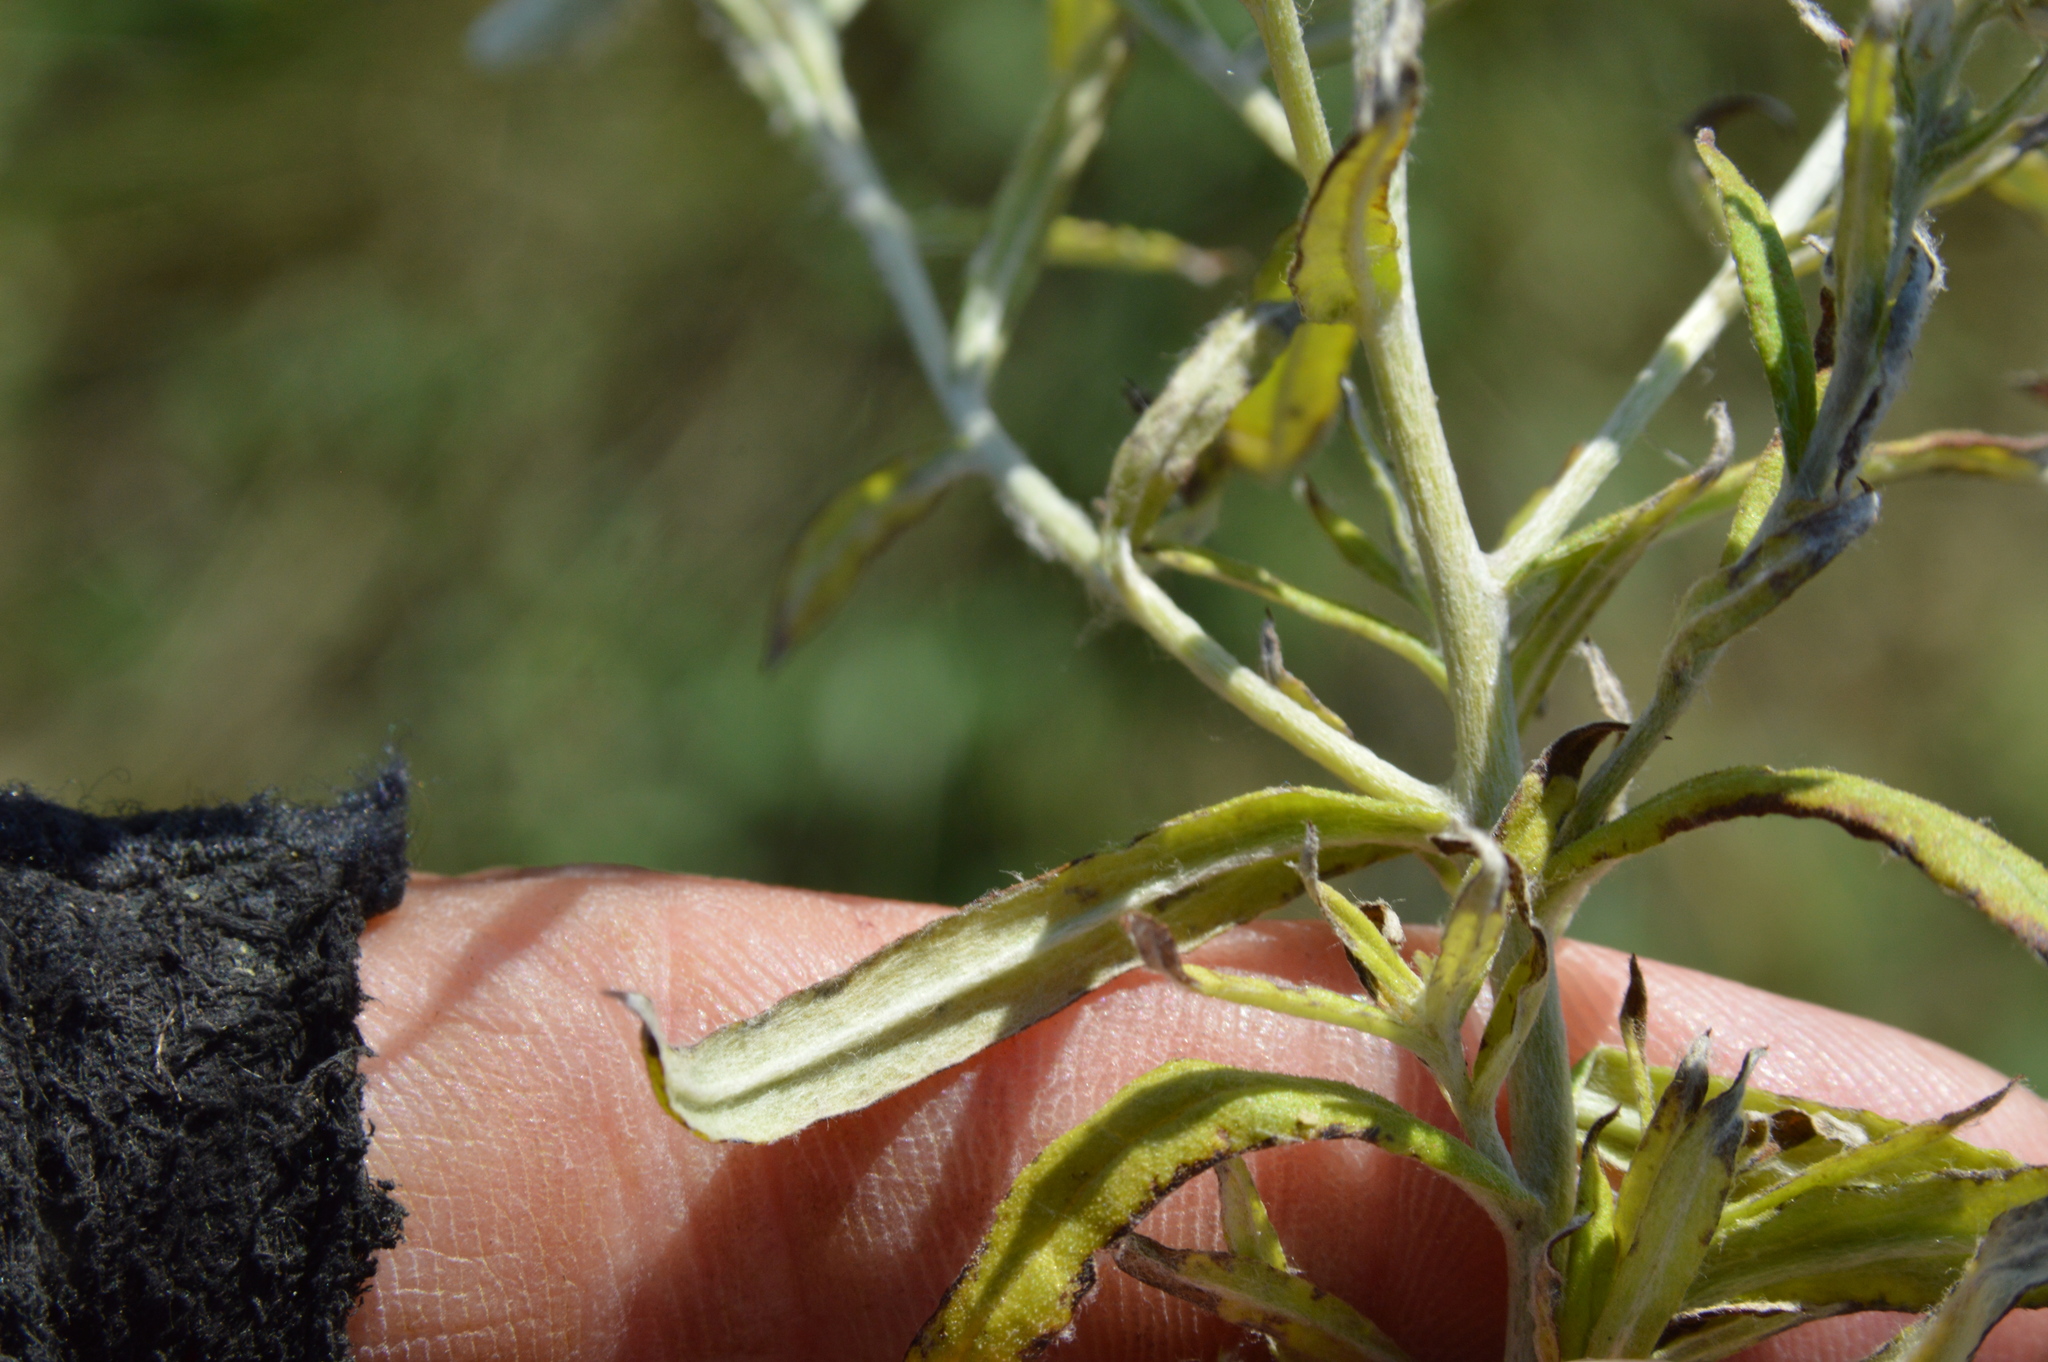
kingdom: Plantae
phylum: Tracheophyta
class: Magnoliopsida
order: Asterales
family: Asteraceae
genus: Pseudognaphalium
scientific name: Pseudognaphalium obtusifolium
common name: Eastern rabbit-tobacco
